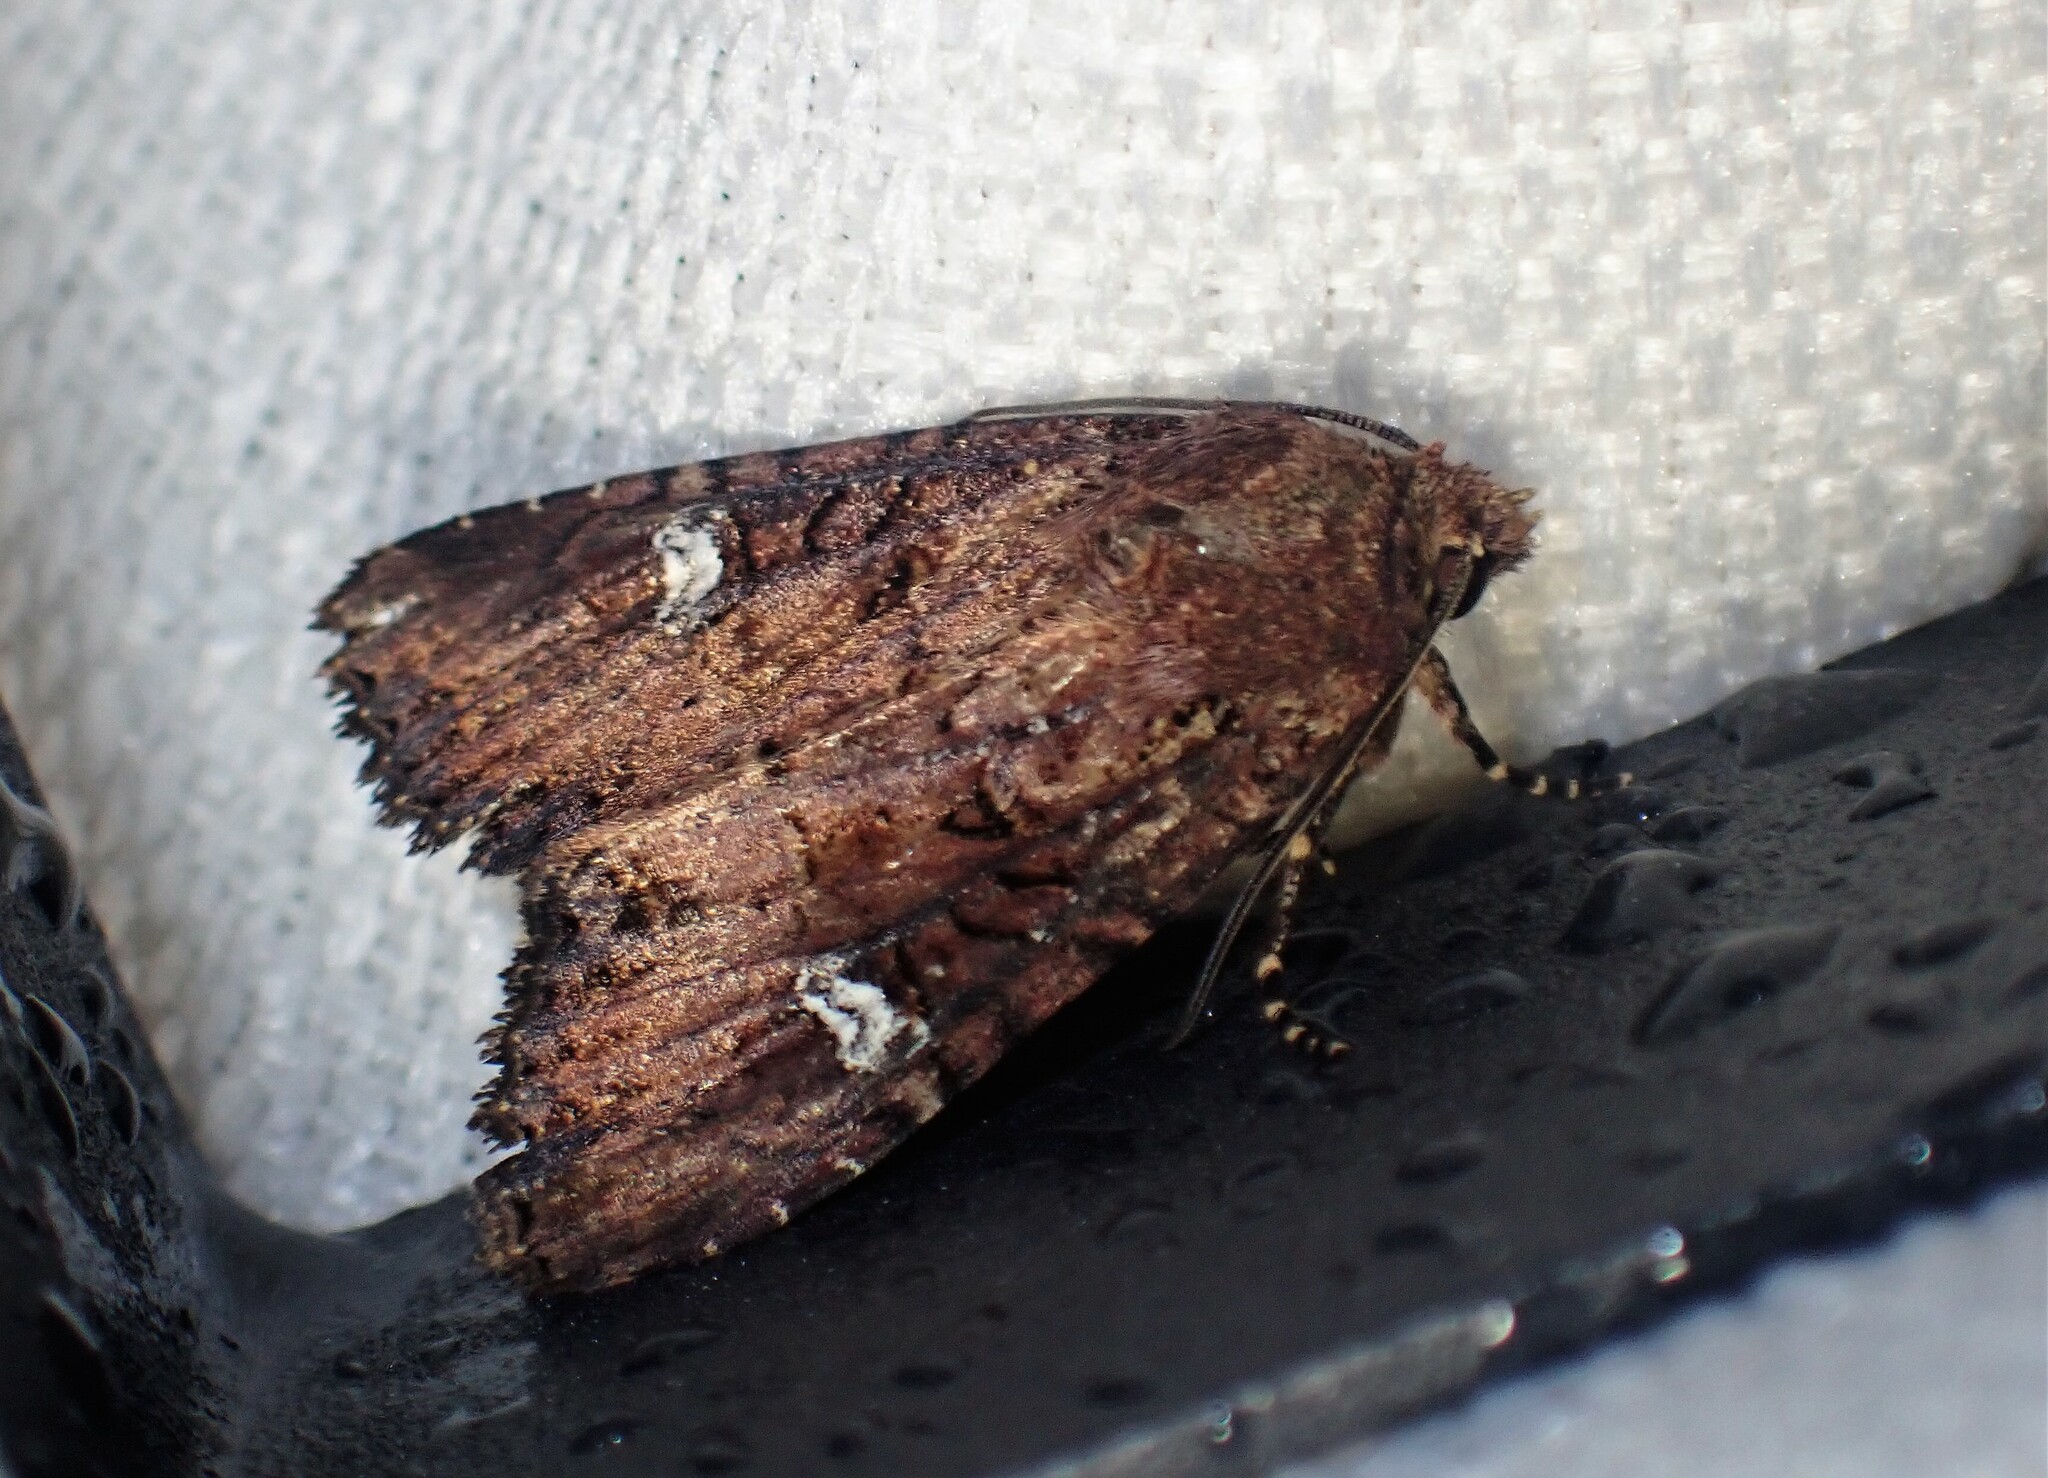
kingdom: Animalia
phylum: Arthropoda
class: Insecta
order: Lepidoptera
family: Noctuidae
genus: Mesapamea
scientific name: Mesapamea storai
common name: Owlet moth
